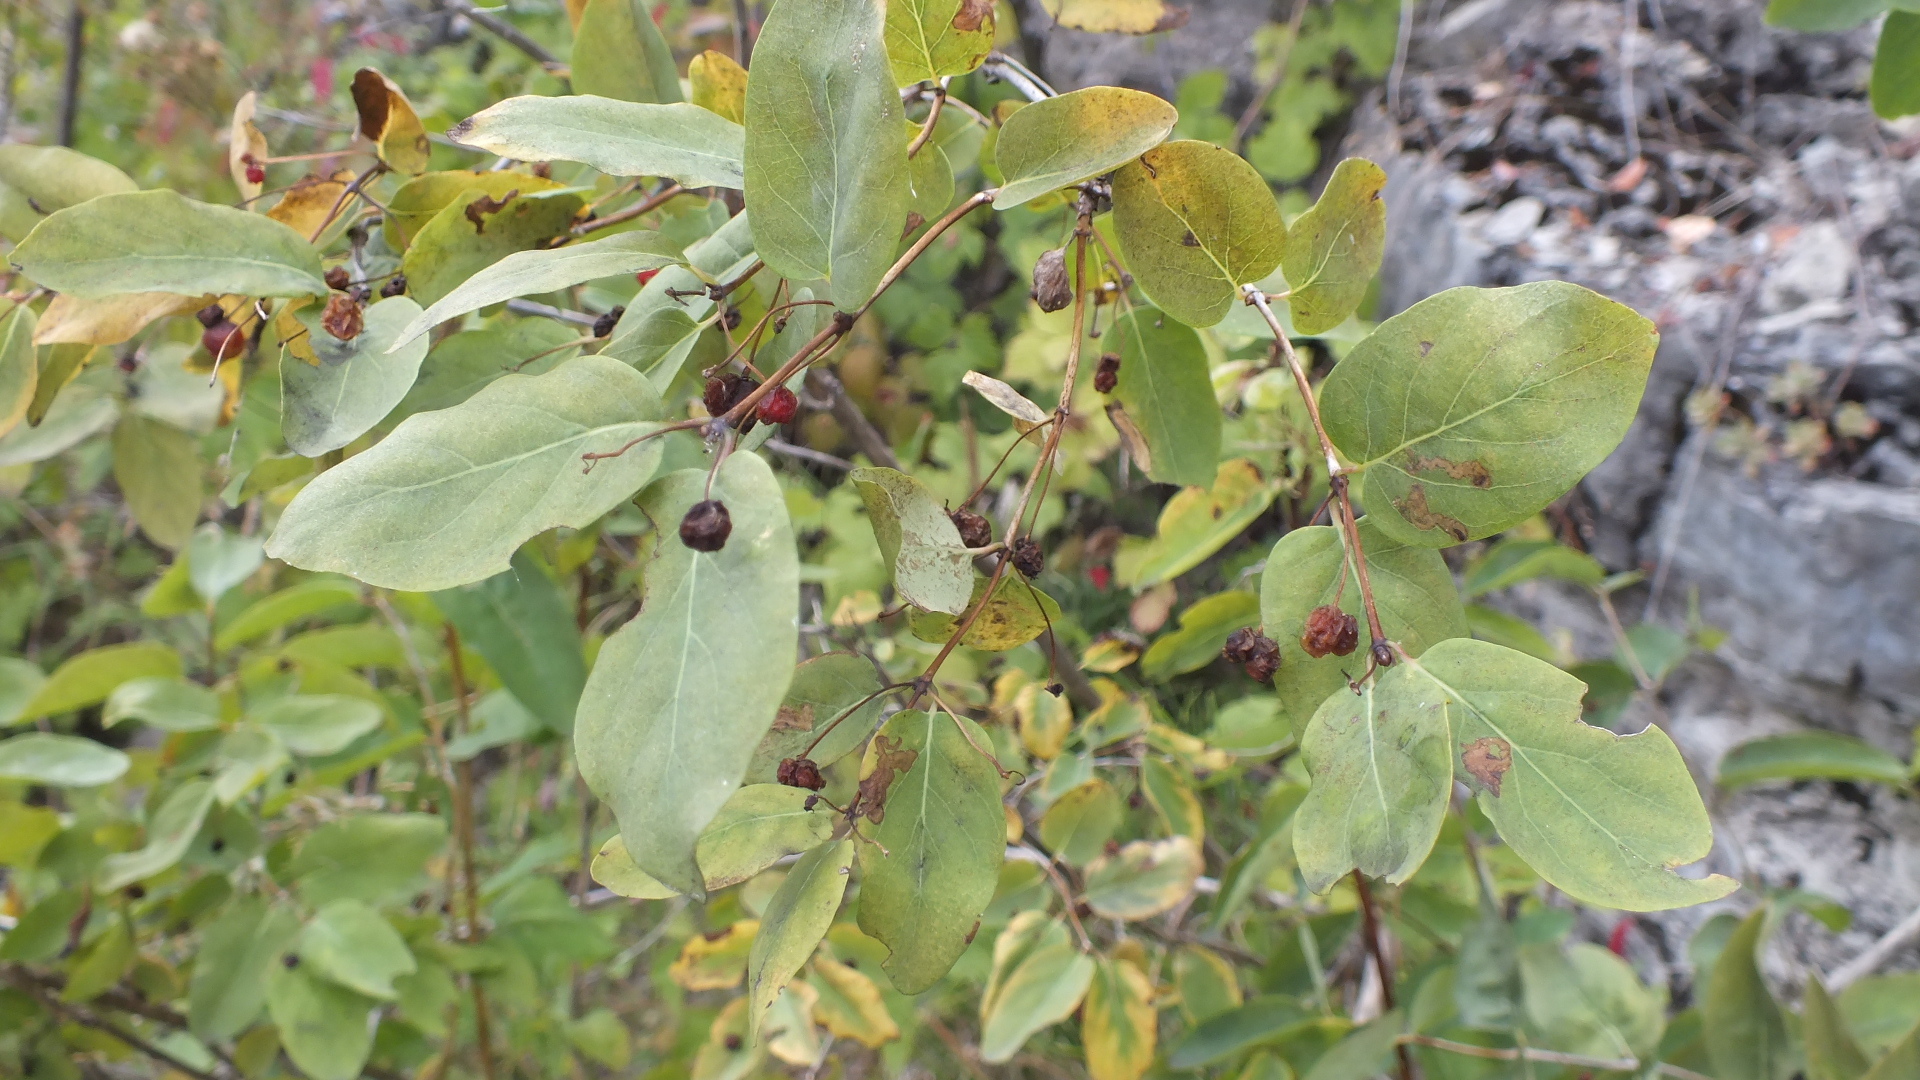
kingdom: Plantae
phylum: Tracheophyta
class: Magnoliopsida
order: Dipsacales
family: Caprifoliaceae
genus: Lonicera
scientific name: Lonicera tatarica
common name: Tatarian honeysuckle
